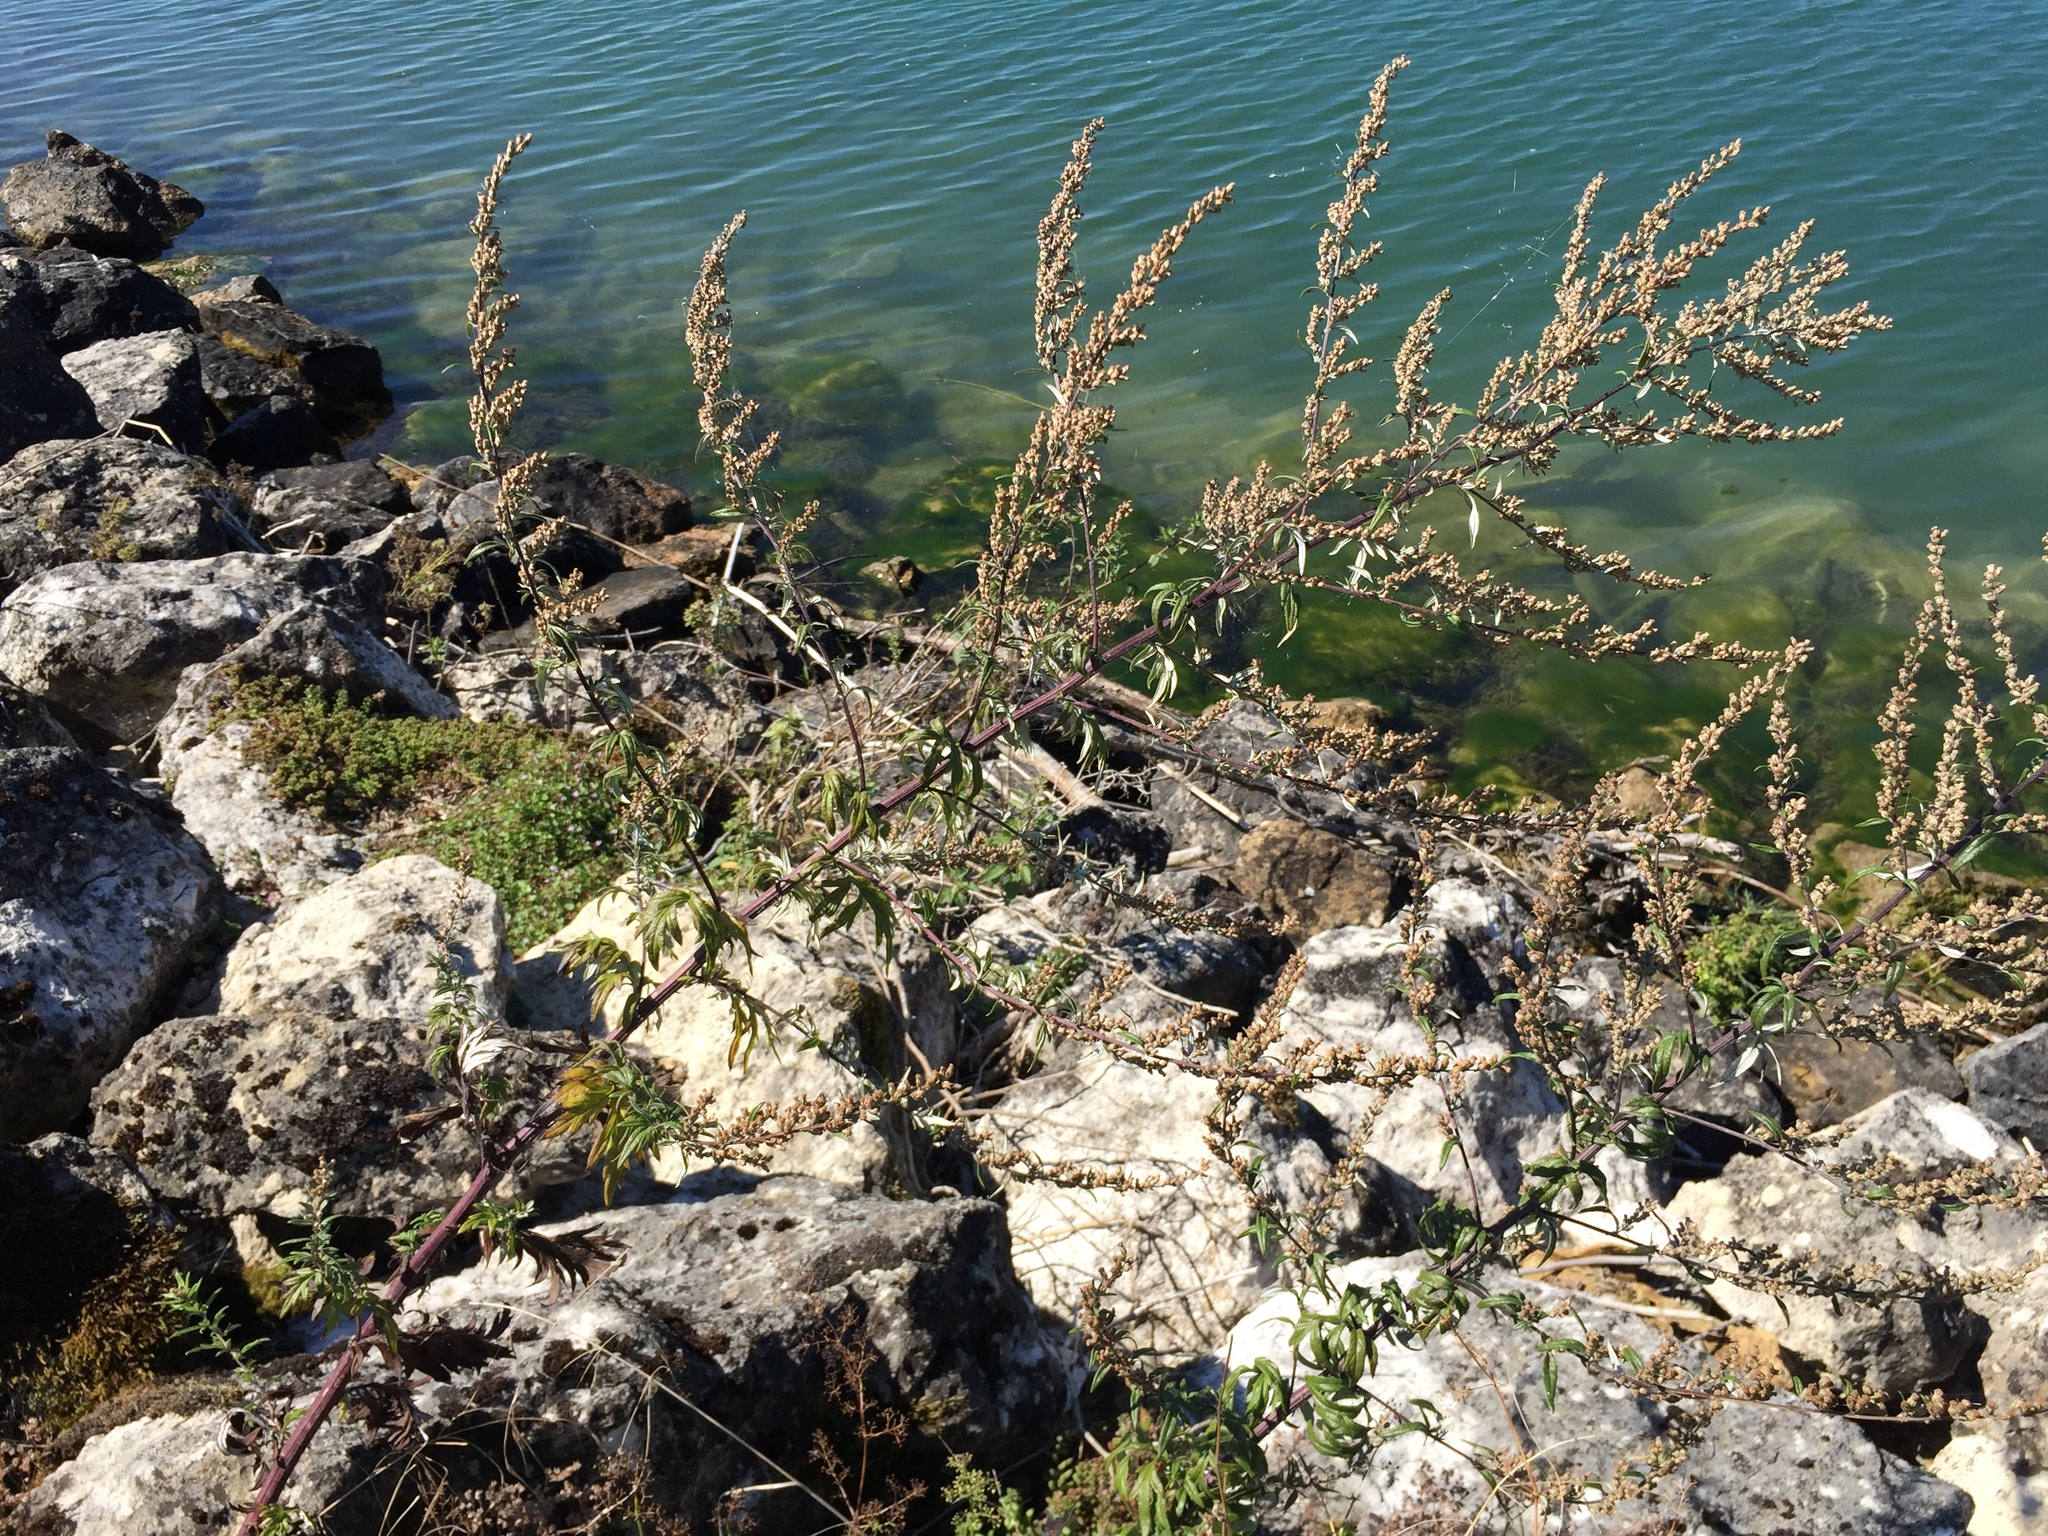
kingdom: Plantae
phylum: Tracheophyta
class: Magnoliopsida
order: Asterales
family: Asteraceae
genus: Artemisia
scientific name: Artemisia vulgaris
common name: Mugwort
